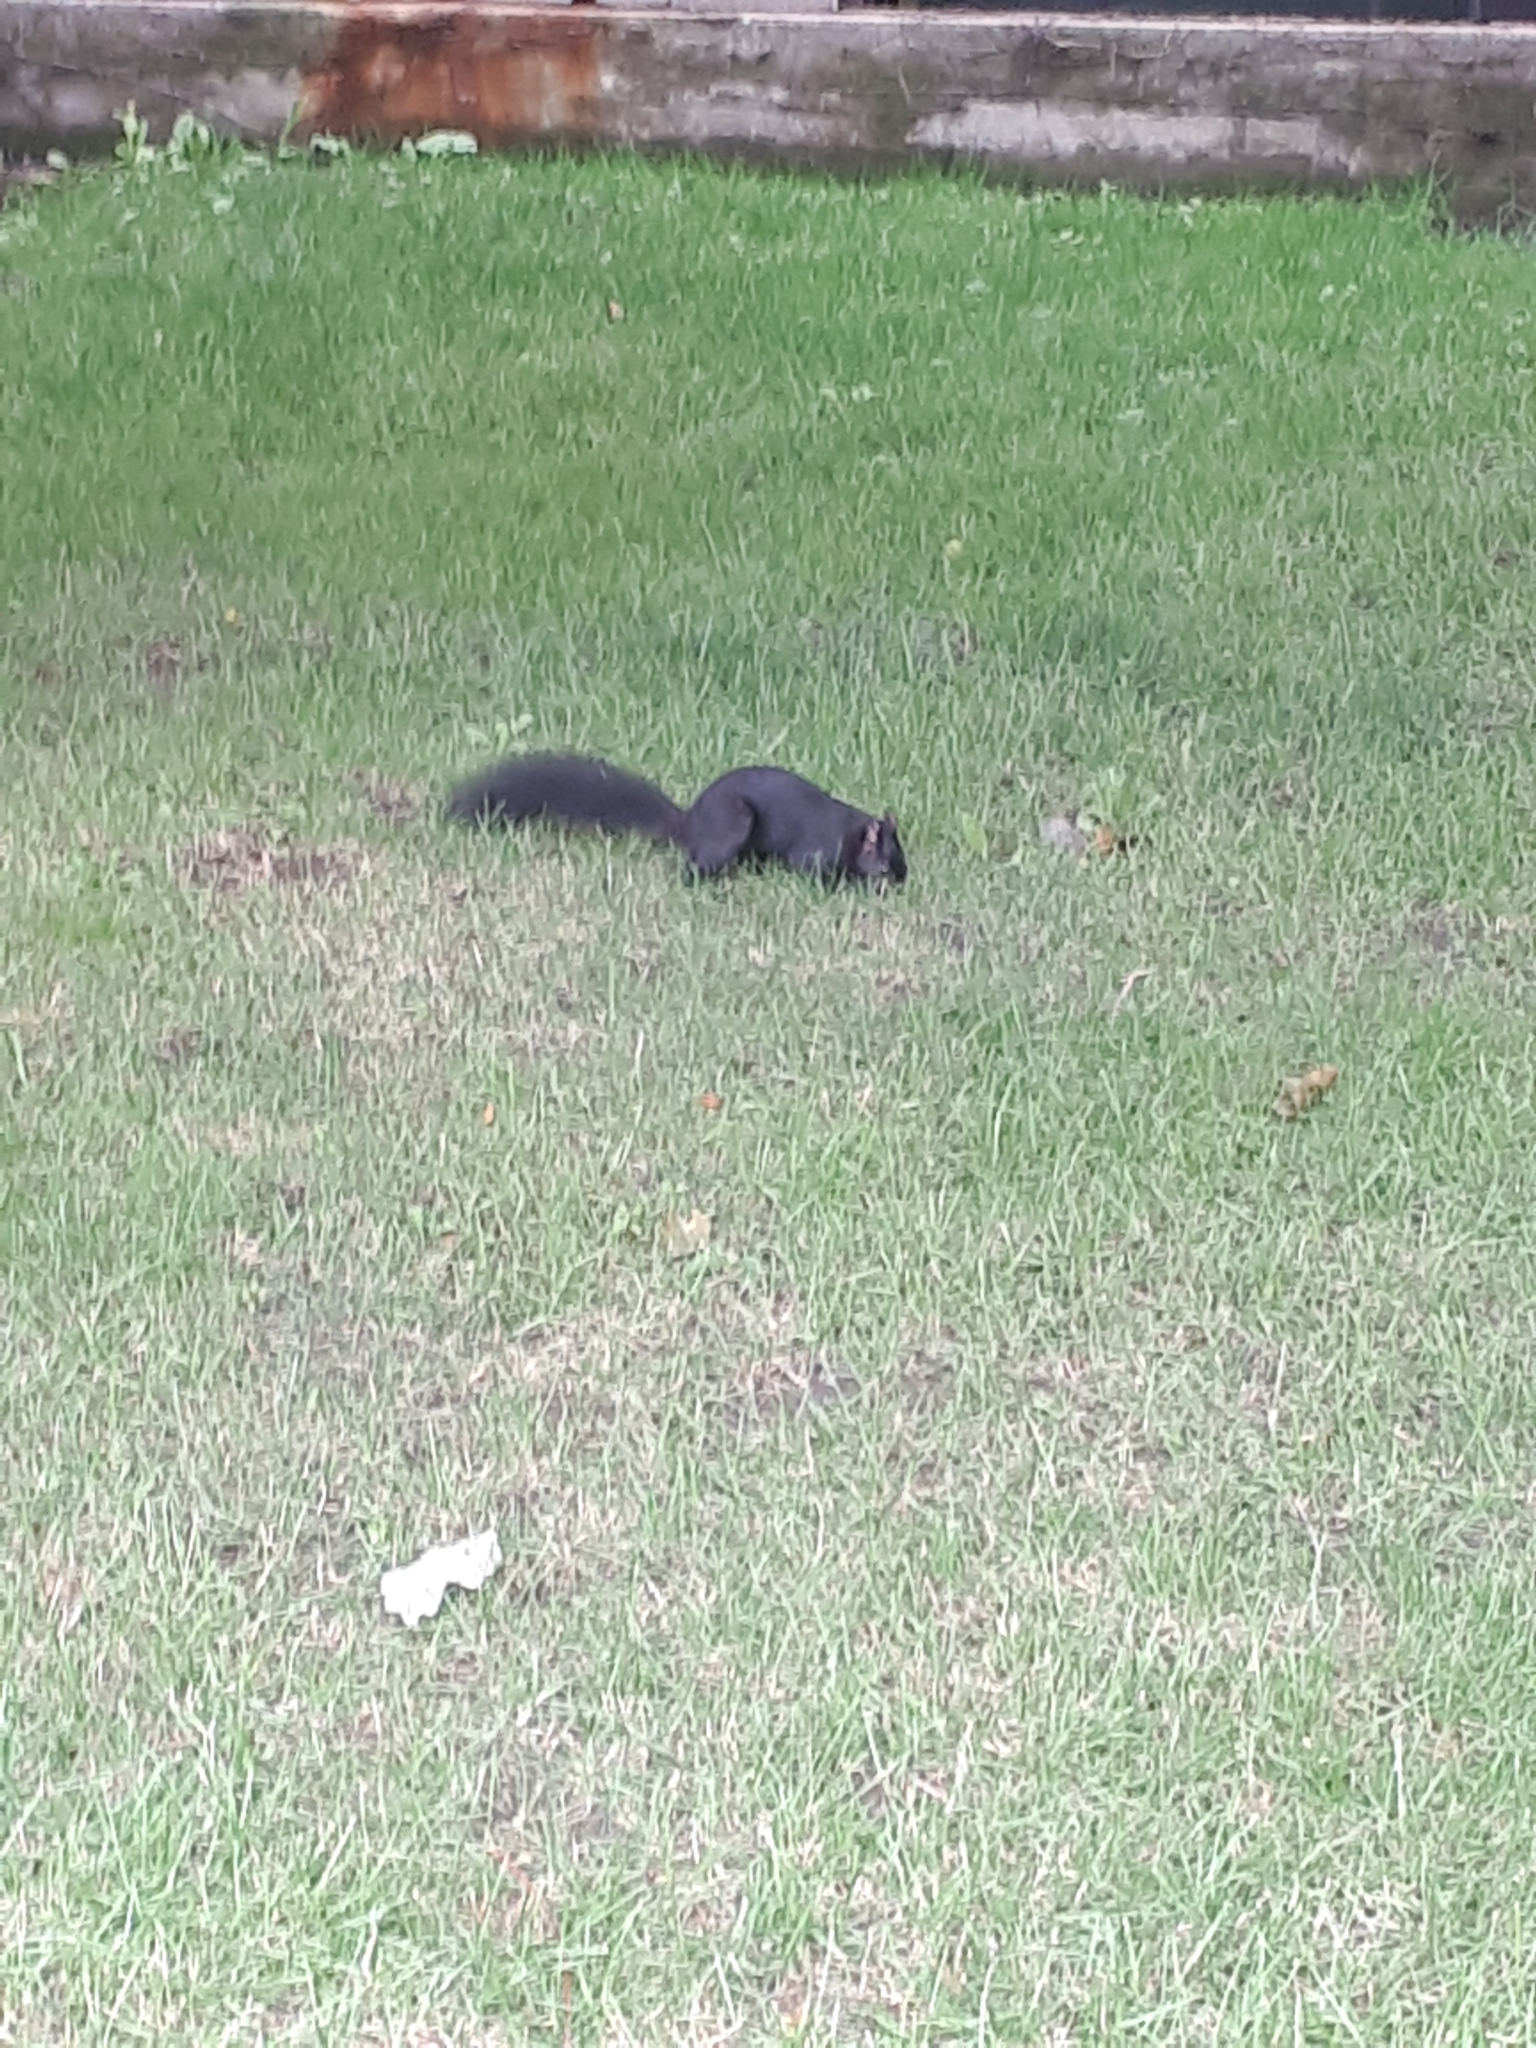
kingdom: Animalia
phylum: Chordata
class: Mammalia
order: Rodentia
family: Sciuridae
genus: Sciurus
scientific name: Sciurus carolinensis
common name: Eastern gray squirrel
